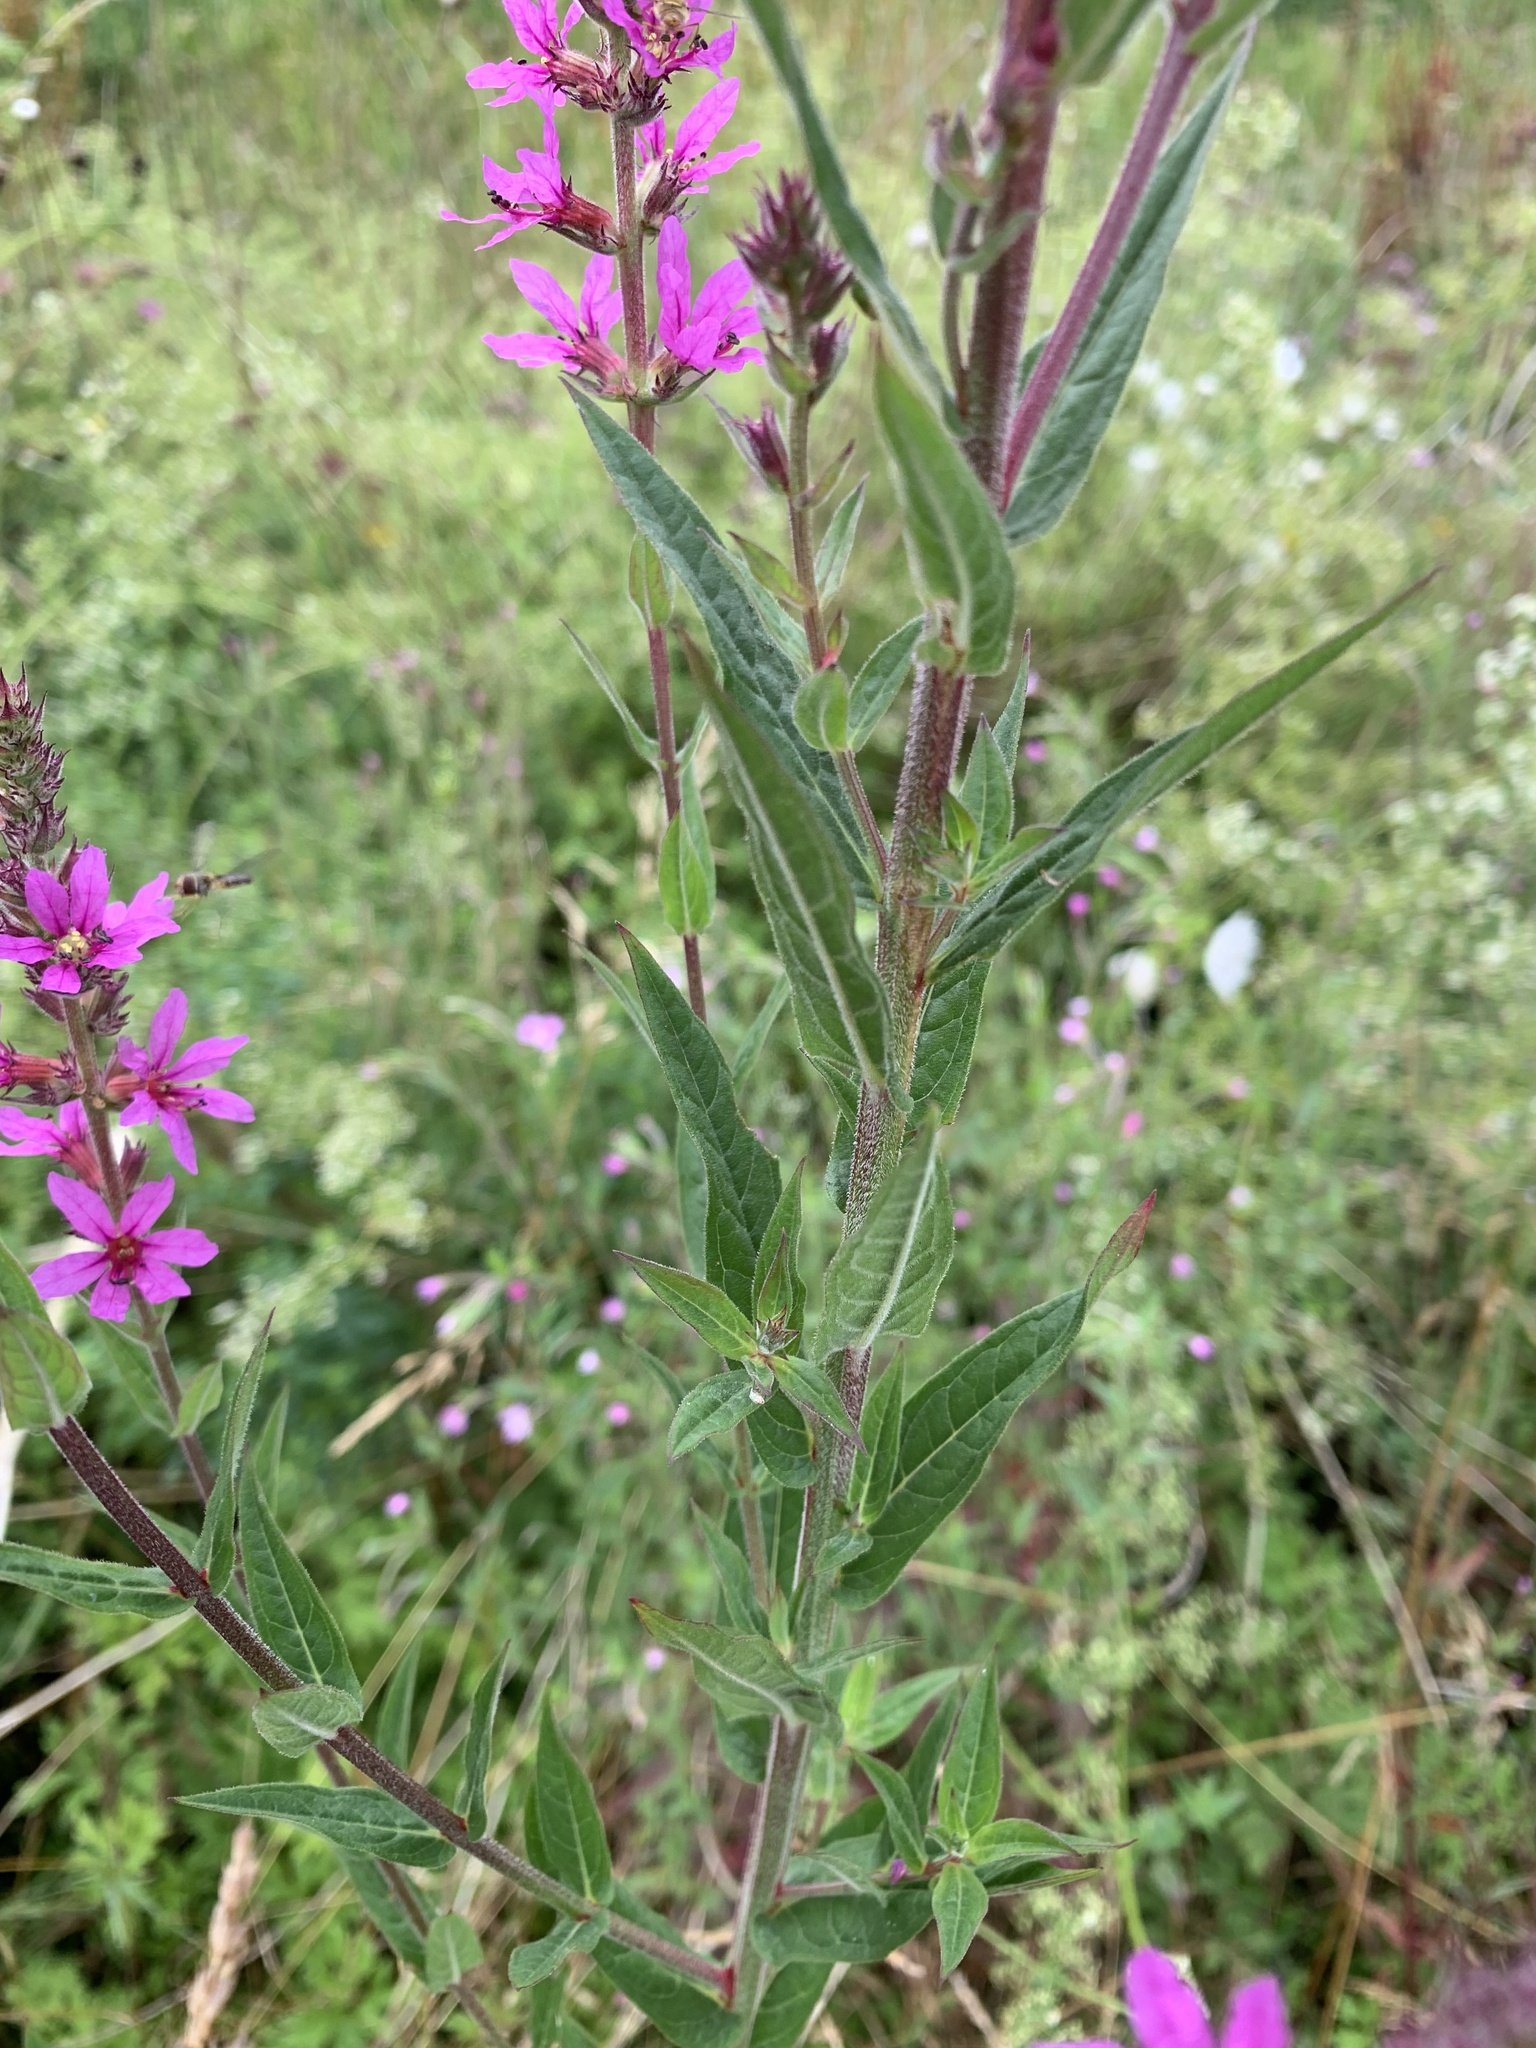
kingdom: Plantae
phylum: Tracheophyta
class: Magnoliopsida
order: Myrtales
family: Lythraceae
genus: Lythrum
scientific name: Lythrum salicaria
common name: Purple loosestrife
